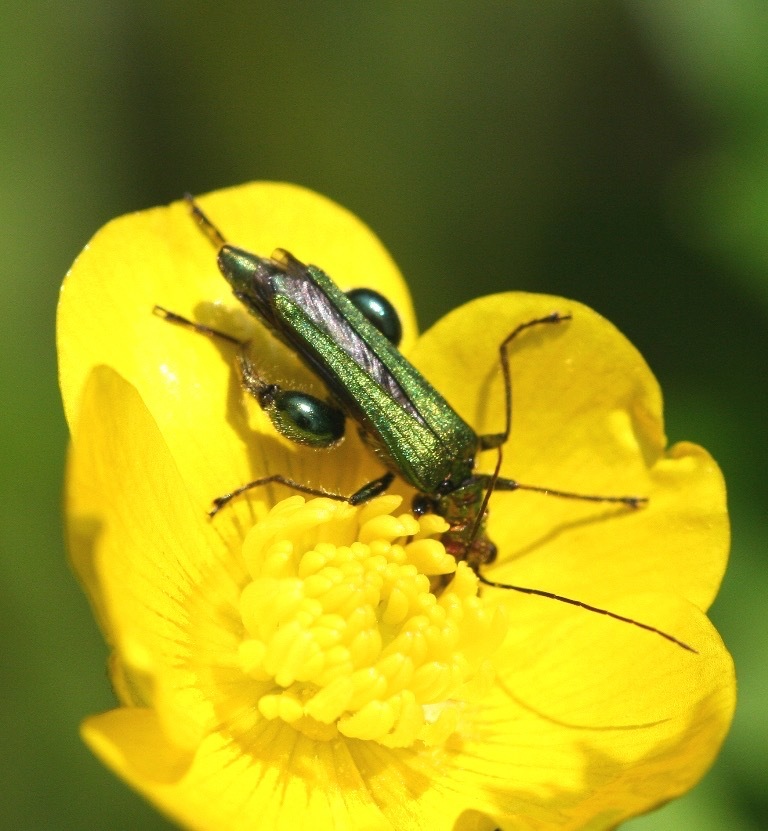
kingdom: Animalia
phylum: Arthropoda
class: Insecta
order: Coleoptera
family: Oedemeridae
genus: Oedemera
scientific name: Oedemera nobilis
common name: Swollen-thighed beetle
